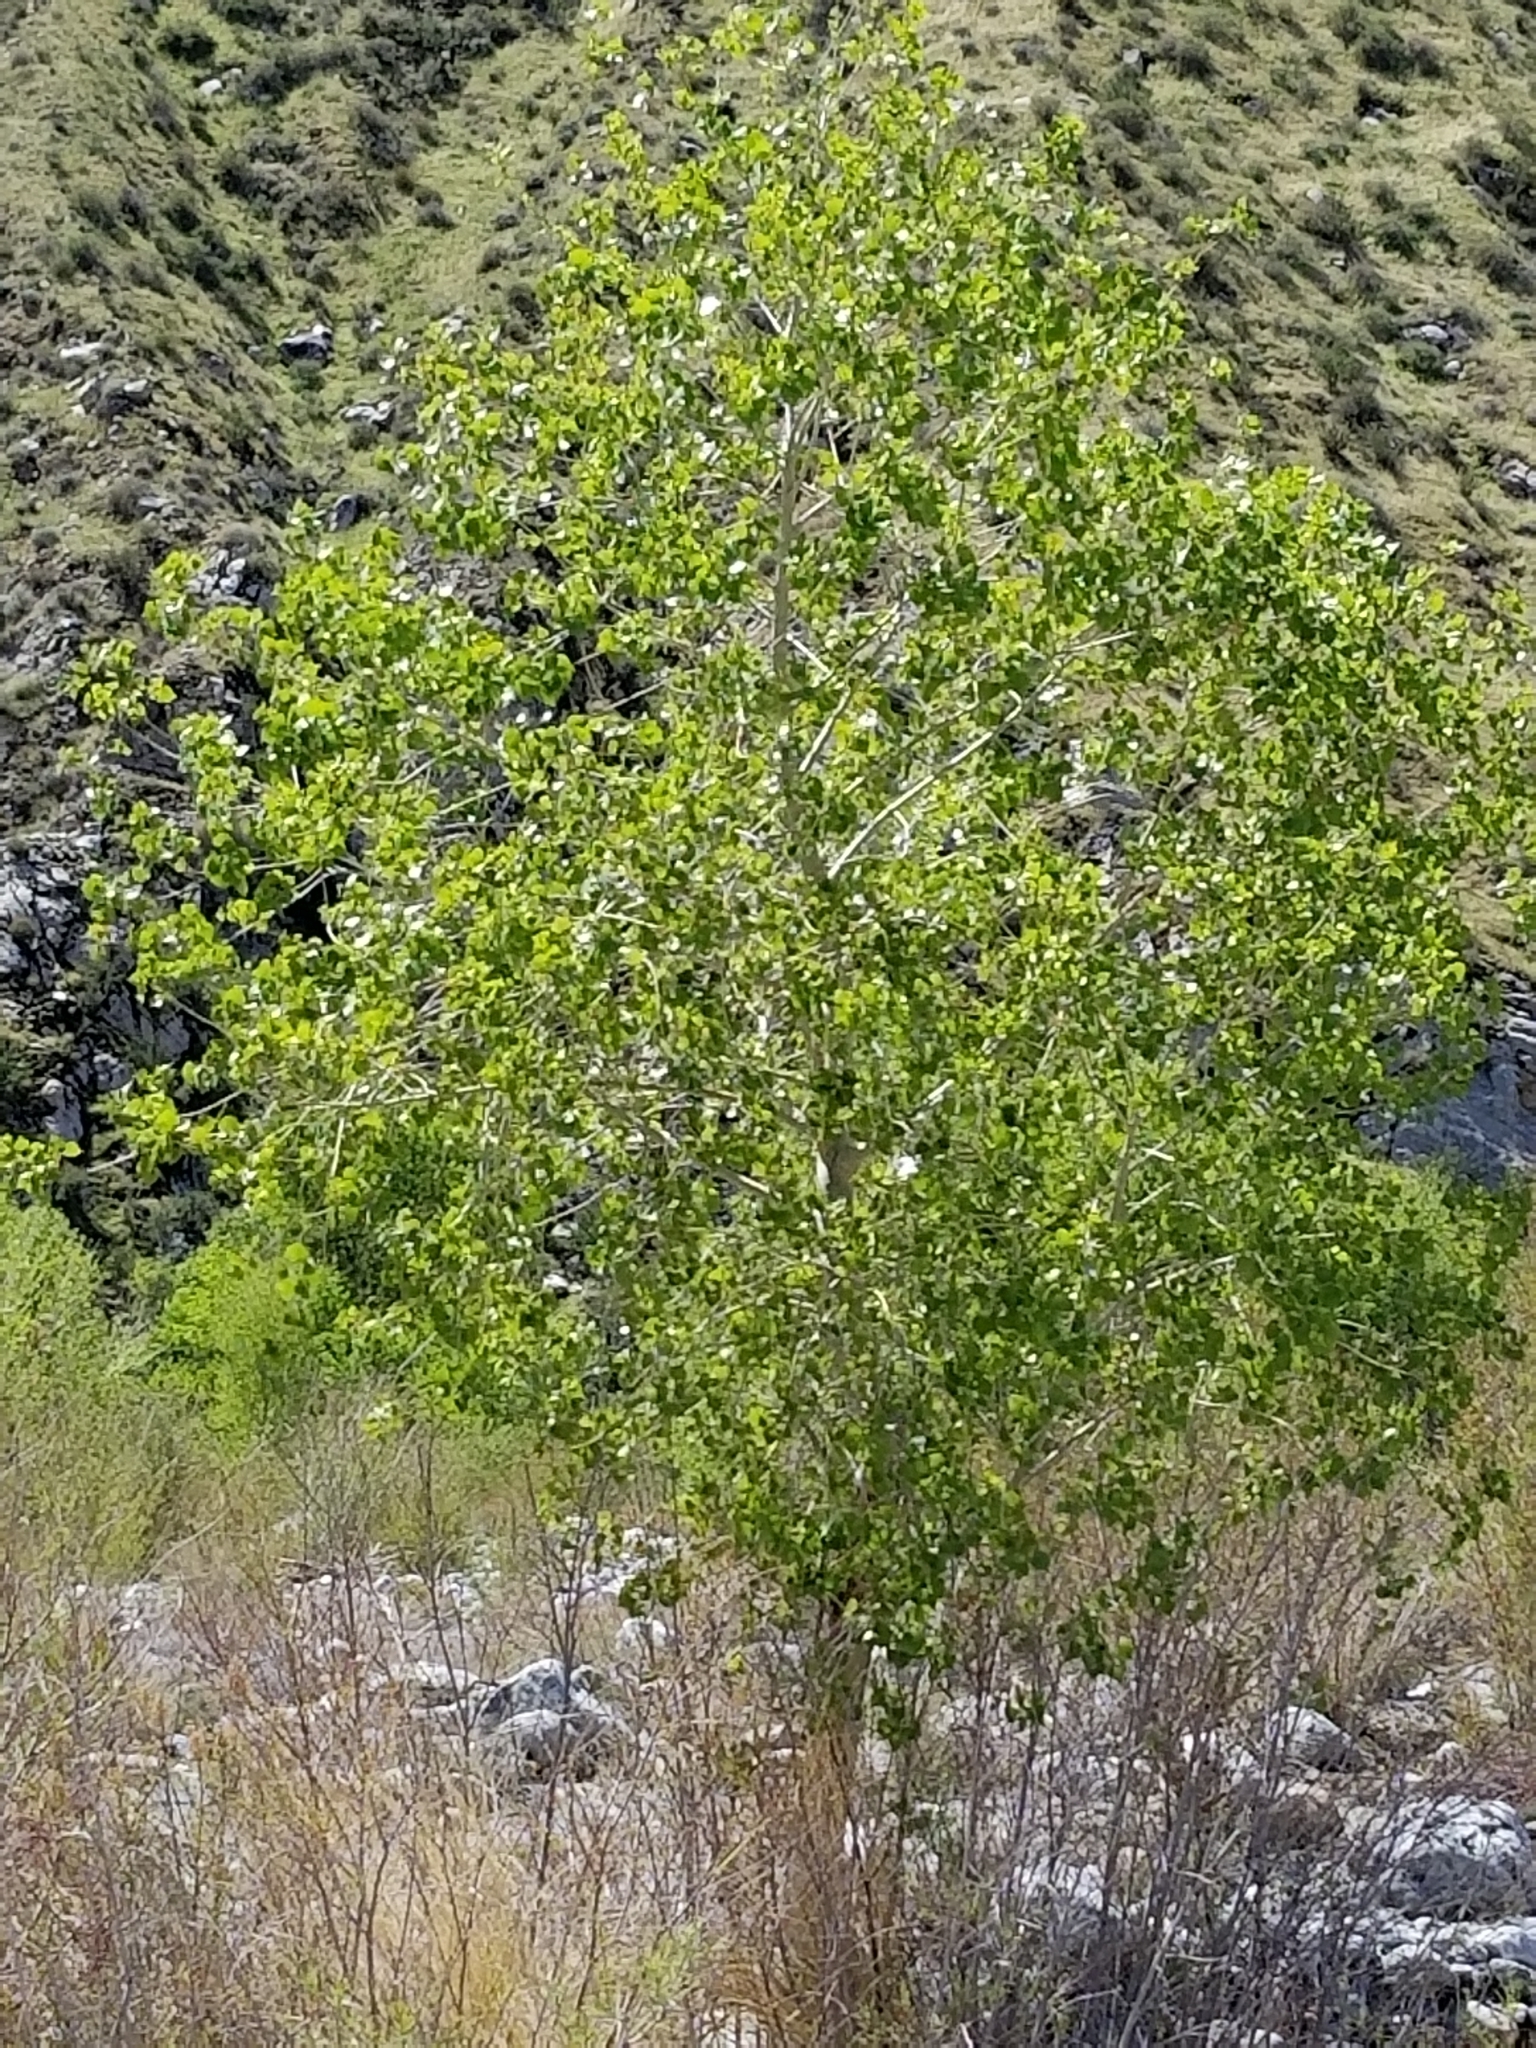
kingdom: Plantae
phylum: Tracheophyta
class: Magnoliopsida
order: Malpighiales
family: Salicaceae
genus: Populus
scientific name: Populus fremontii
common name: Fremont's cottonwood
